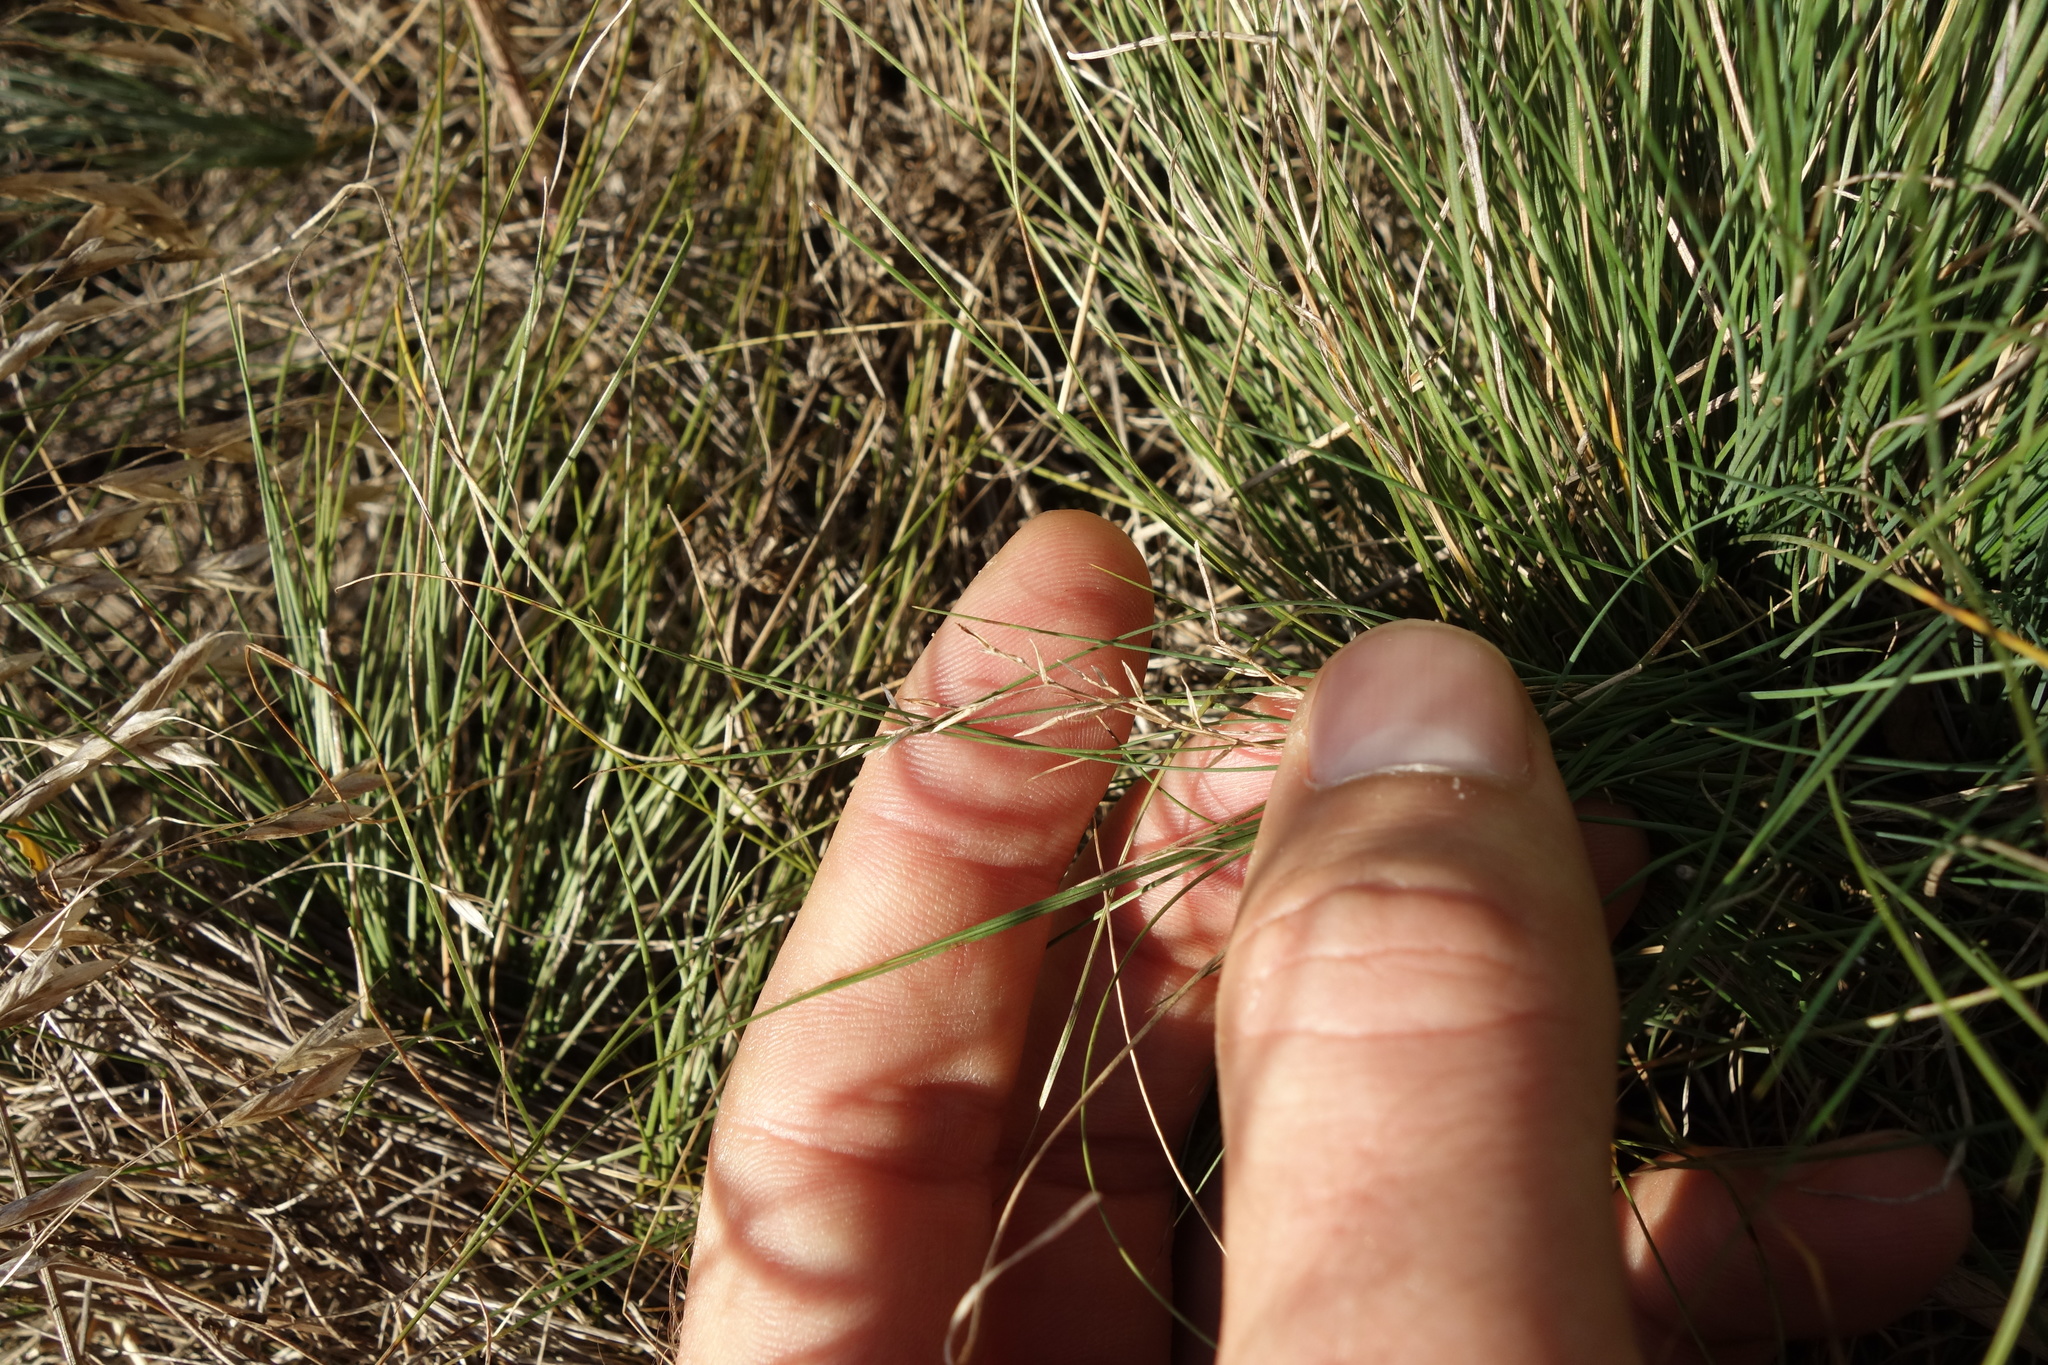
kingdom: Plantae
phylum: Tracheophyta
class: Liliopsida
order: Poales
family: Poaceae
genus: Festuca
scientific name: Festuca valesiaca
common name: Volga fescue
